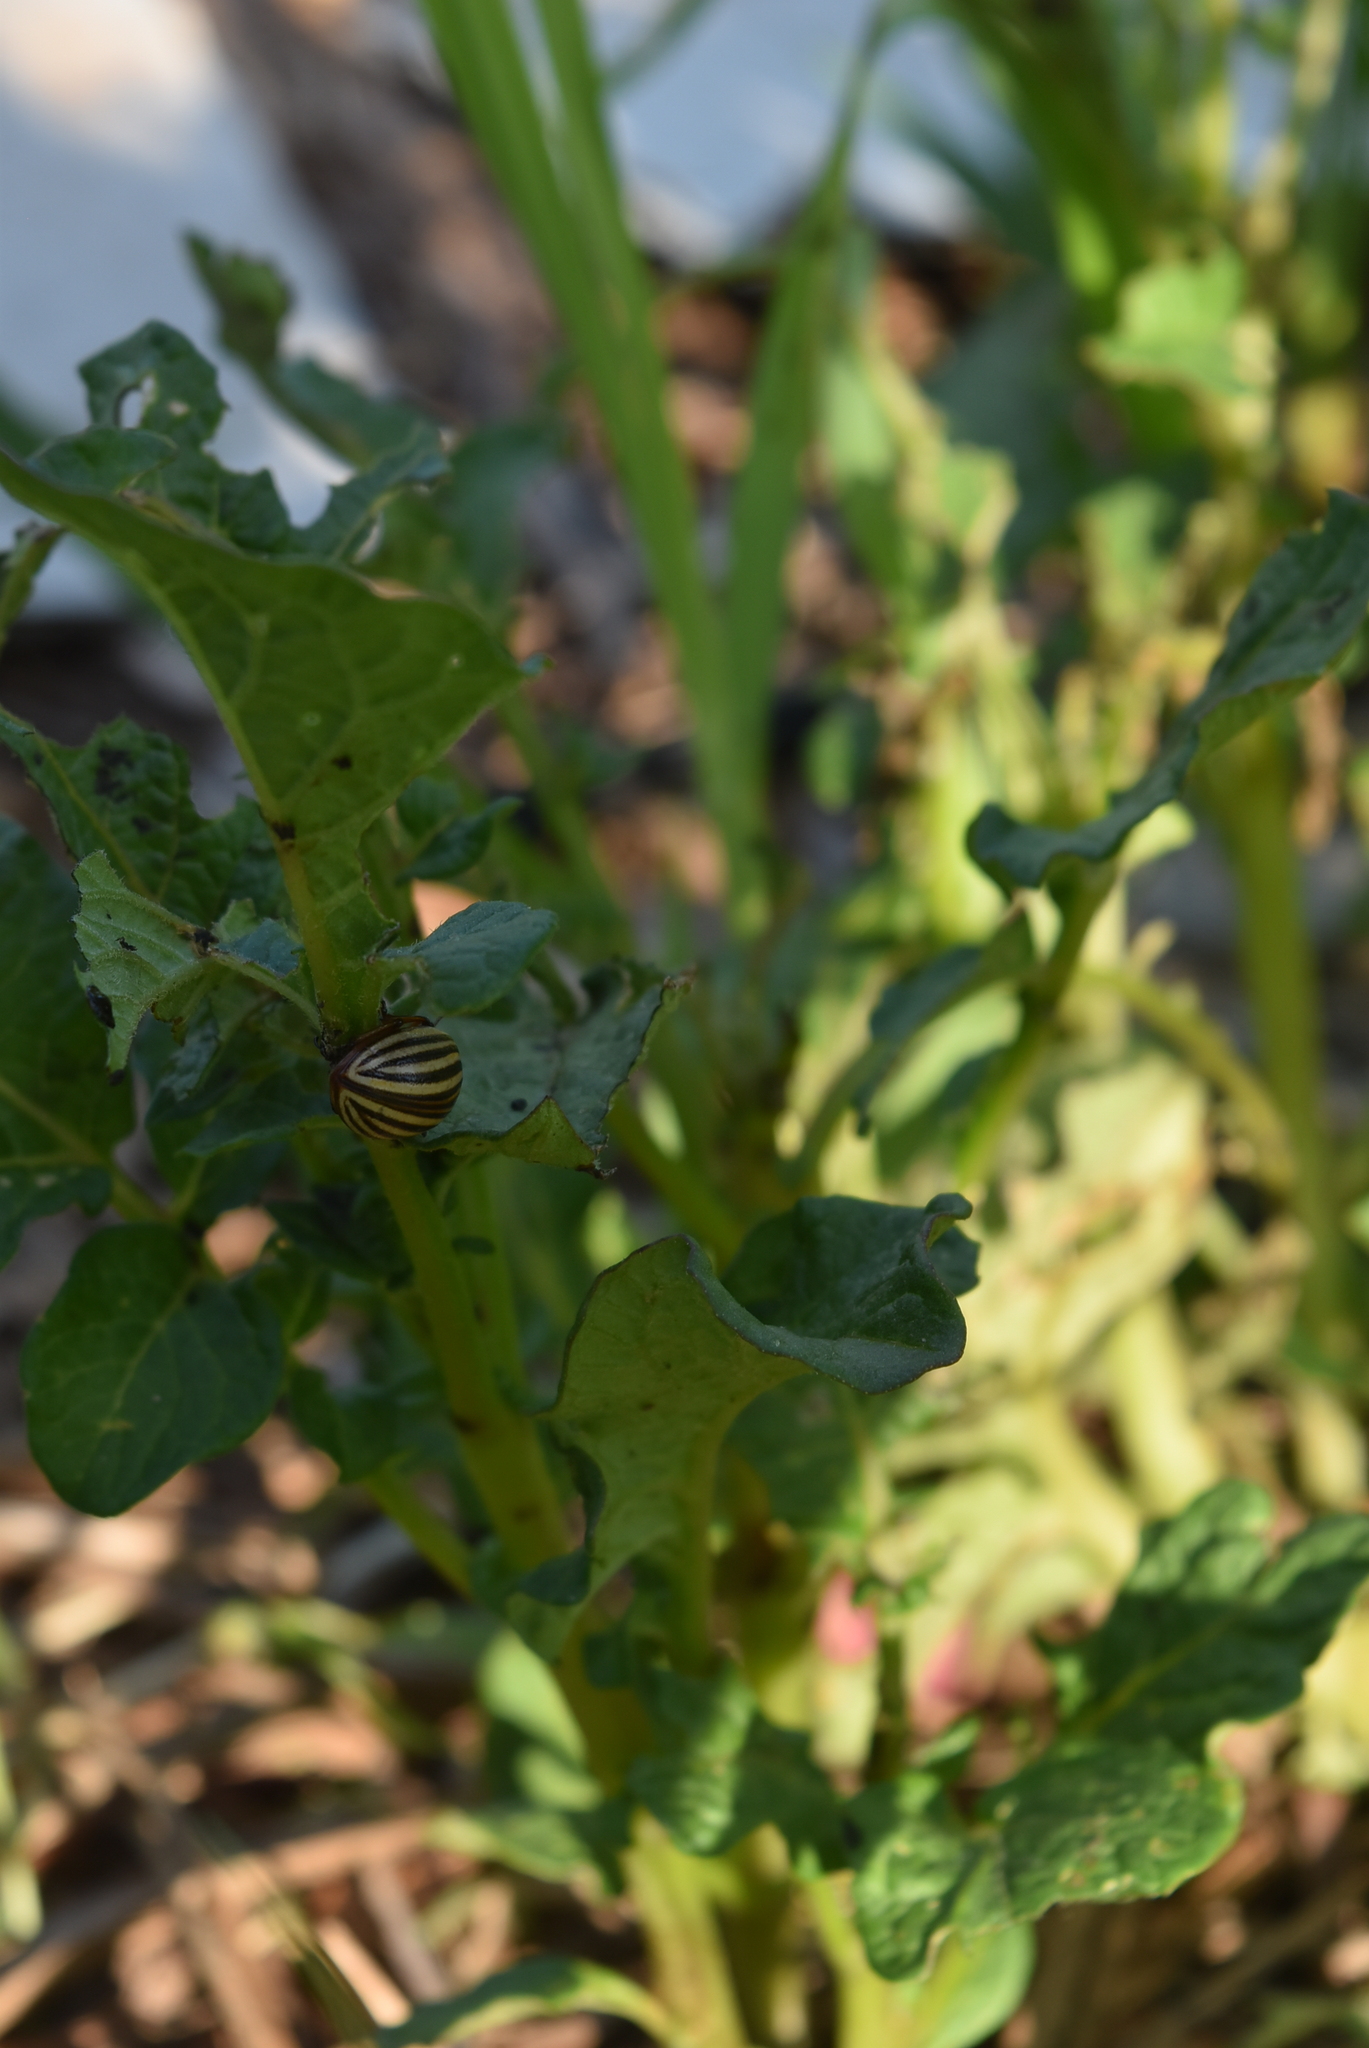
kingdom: Animalia
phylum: Arthropoda
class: Insecta
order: Coleoptera
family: Chrysomelidae
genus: Leptinotarsa
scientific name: Leptinotarsa decemlineata
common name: Colorado potato beetle
